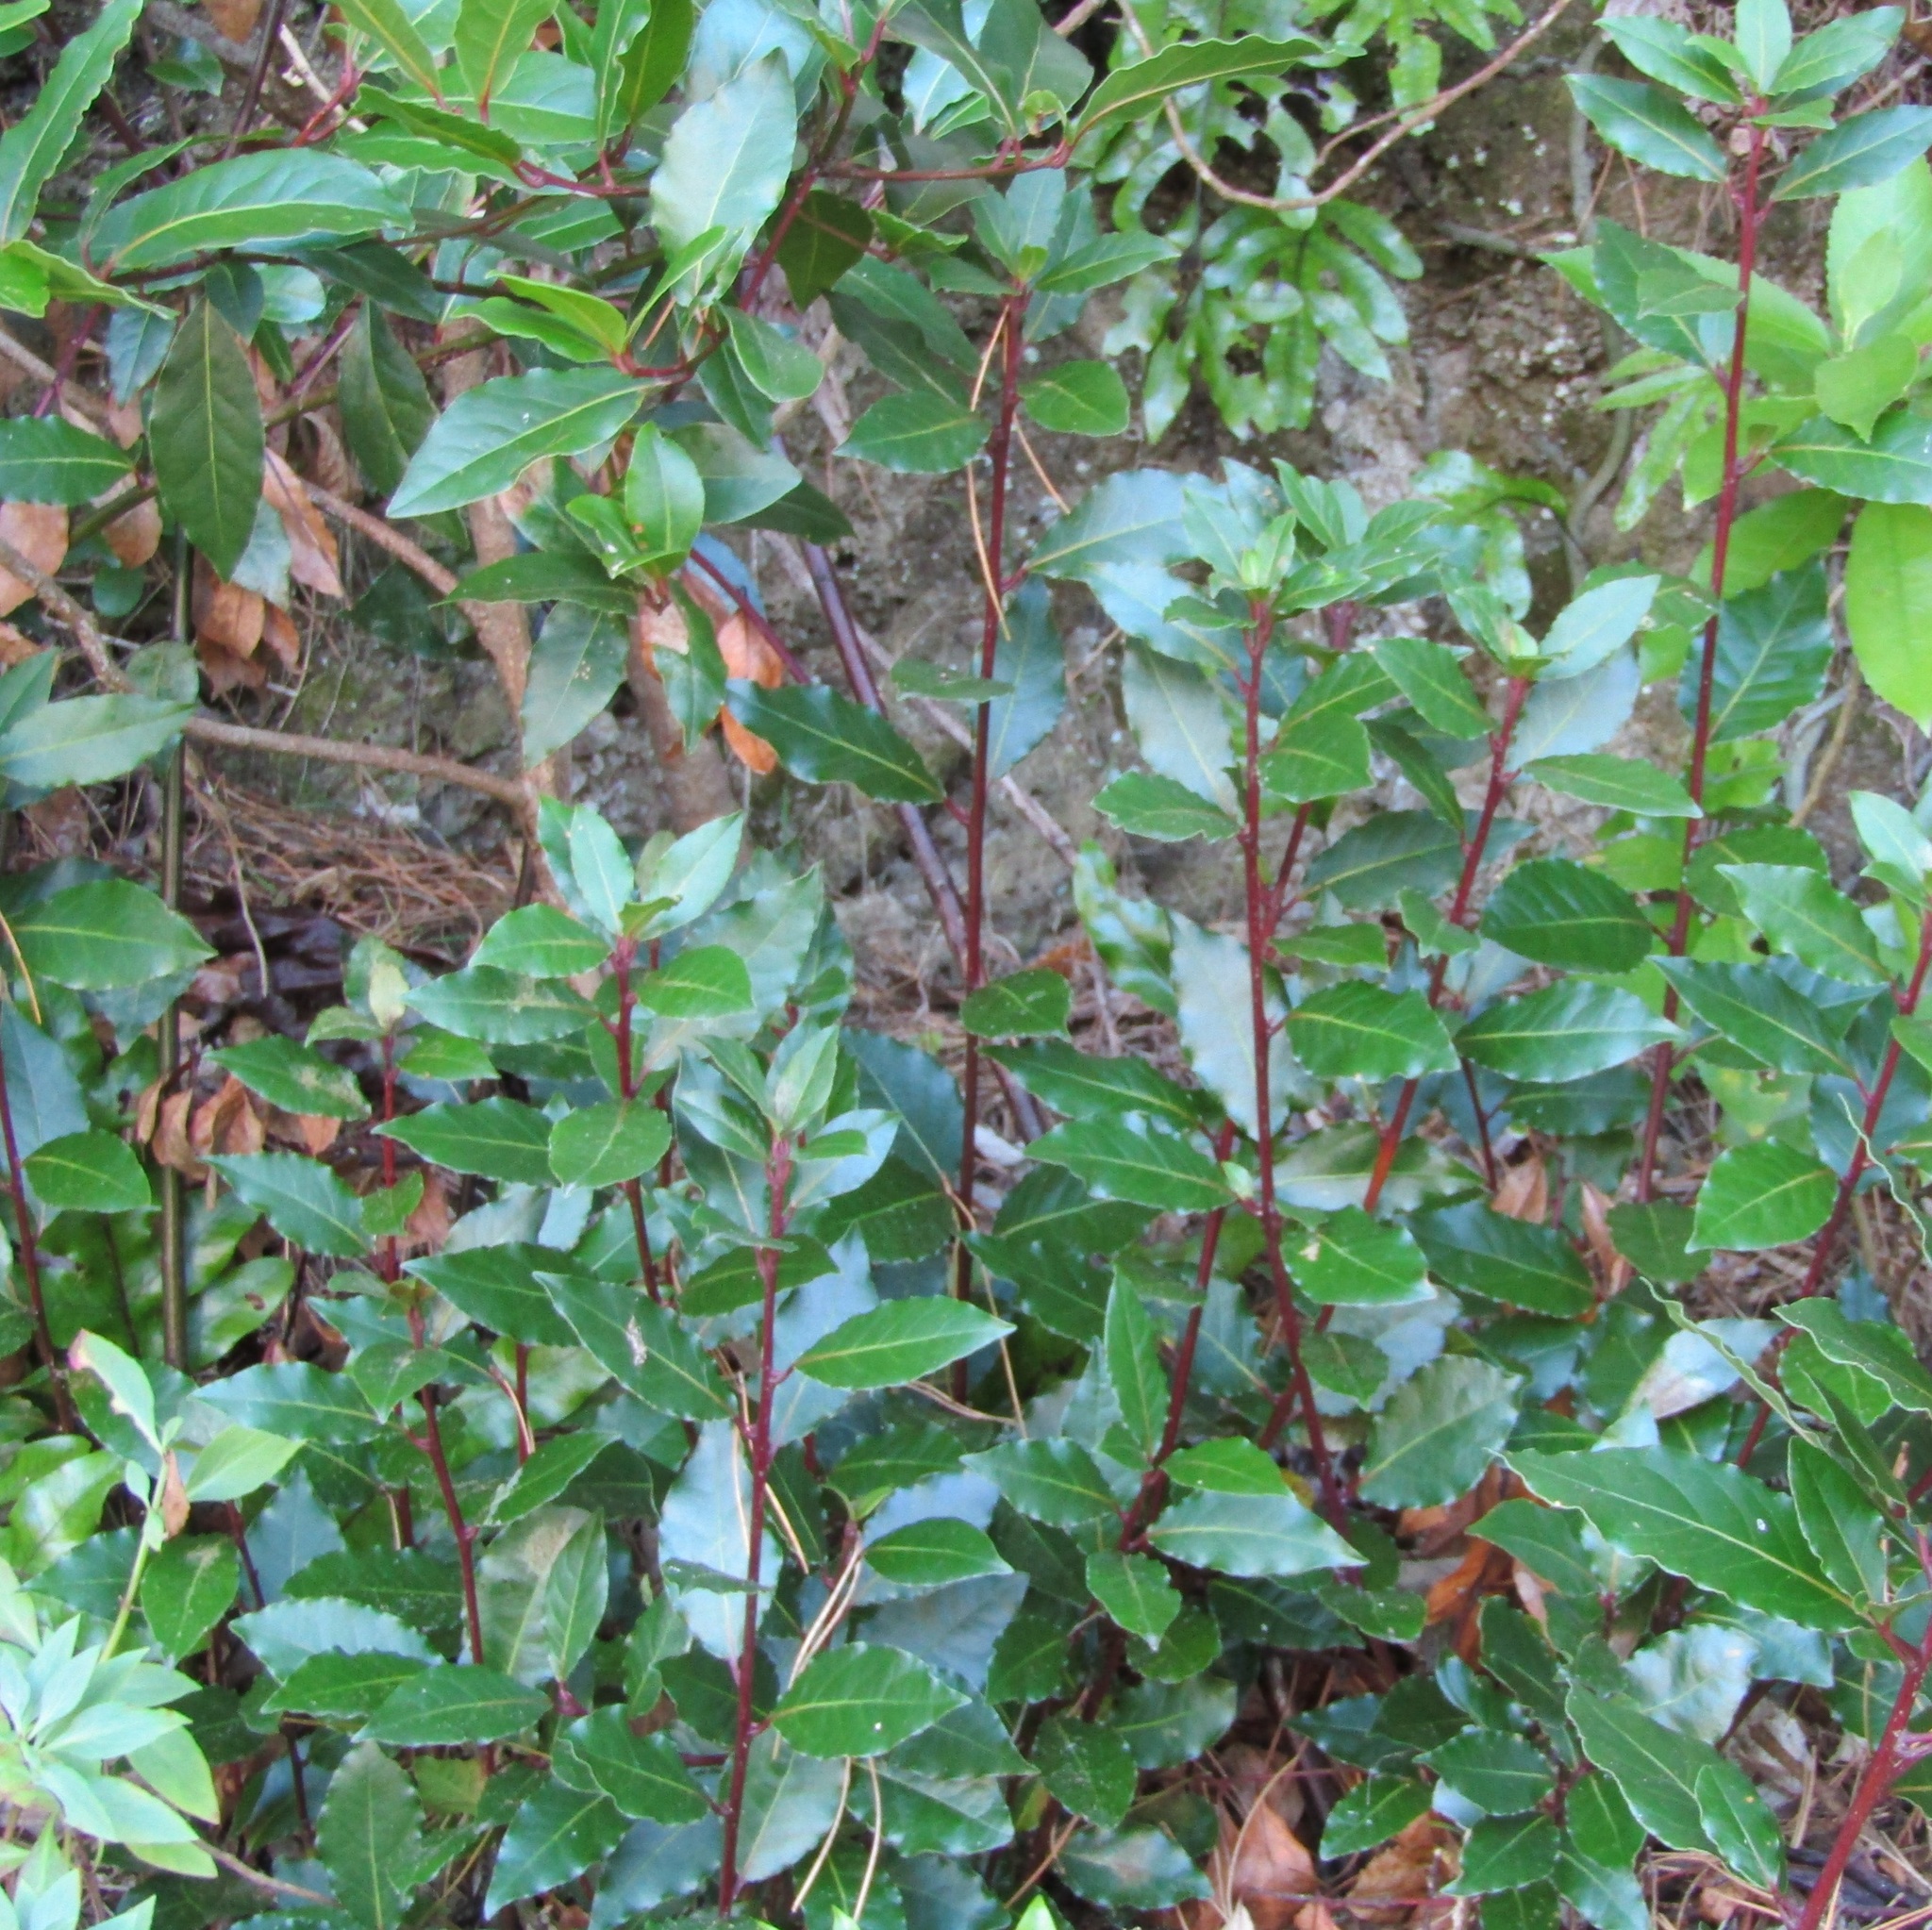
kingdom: Plantae
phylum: Tracheophyta
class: Magnoliopsida
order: Laurales
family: Lauraceae
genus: Laurus
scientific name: Laurus nobilis
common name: Bay
